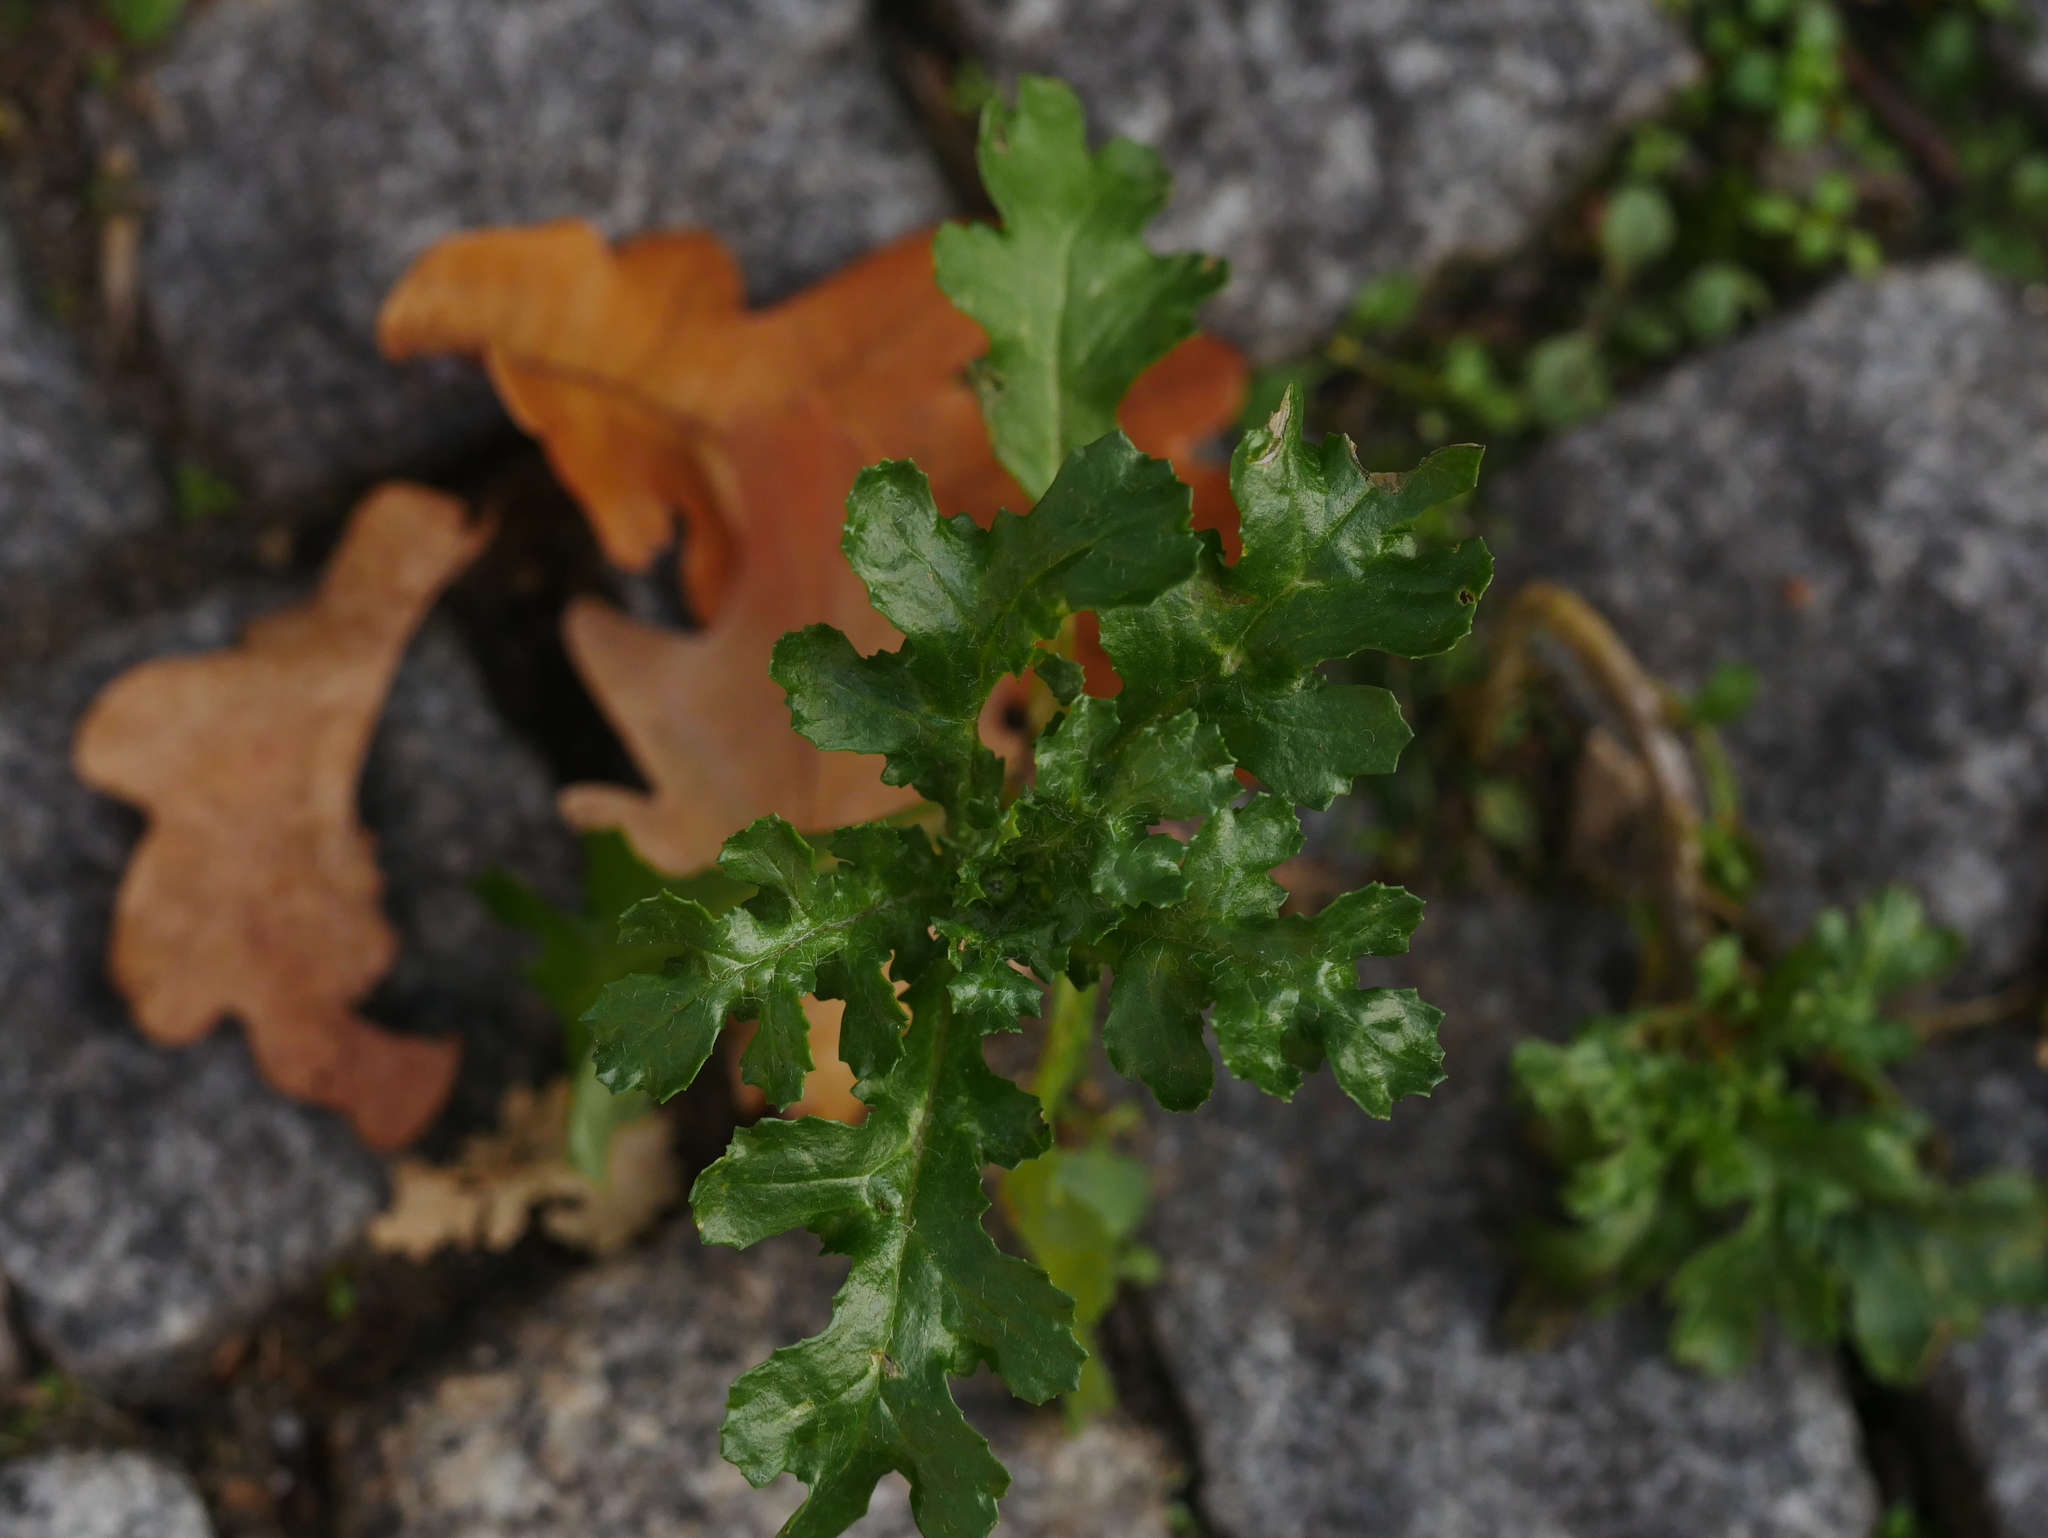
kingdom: Plantae
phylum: Tracheophyta
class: Magnoliopsida
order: Asterales
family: Asteraceae
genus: Senecio
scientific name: Senecio vulgaris
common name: Old-man-in-the-spring
